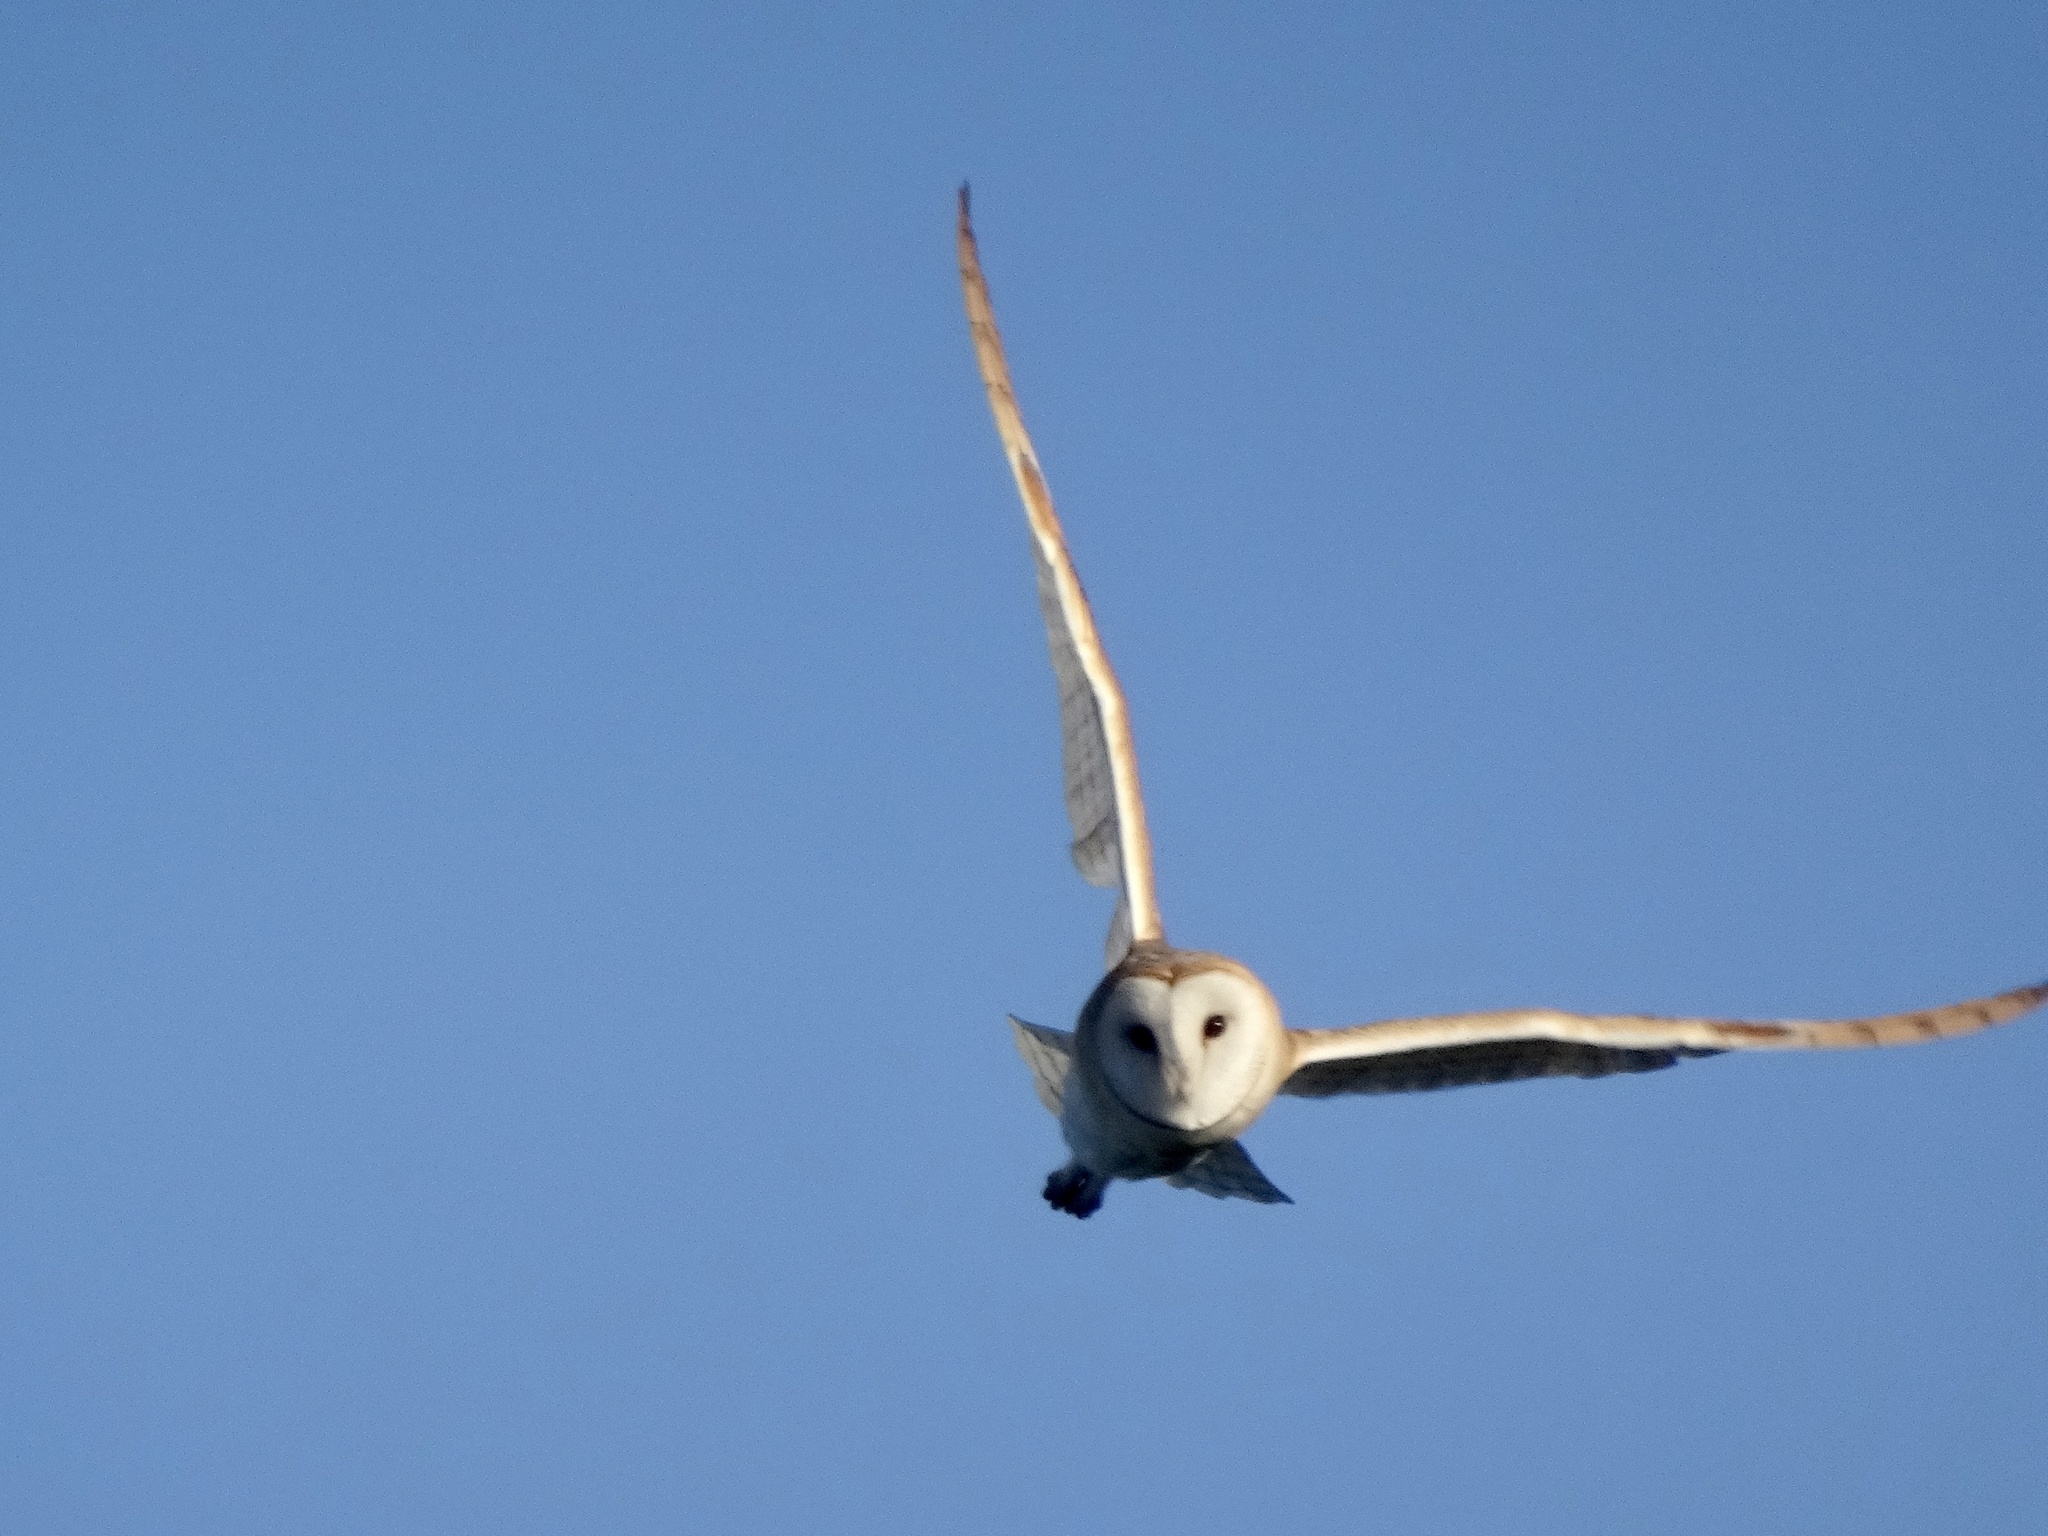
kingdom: Animalia
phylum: Chordata
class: Aves
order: Strigiformes
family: Tytonidae
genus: Tyto
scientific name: Tyto alba
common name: Barn owl
